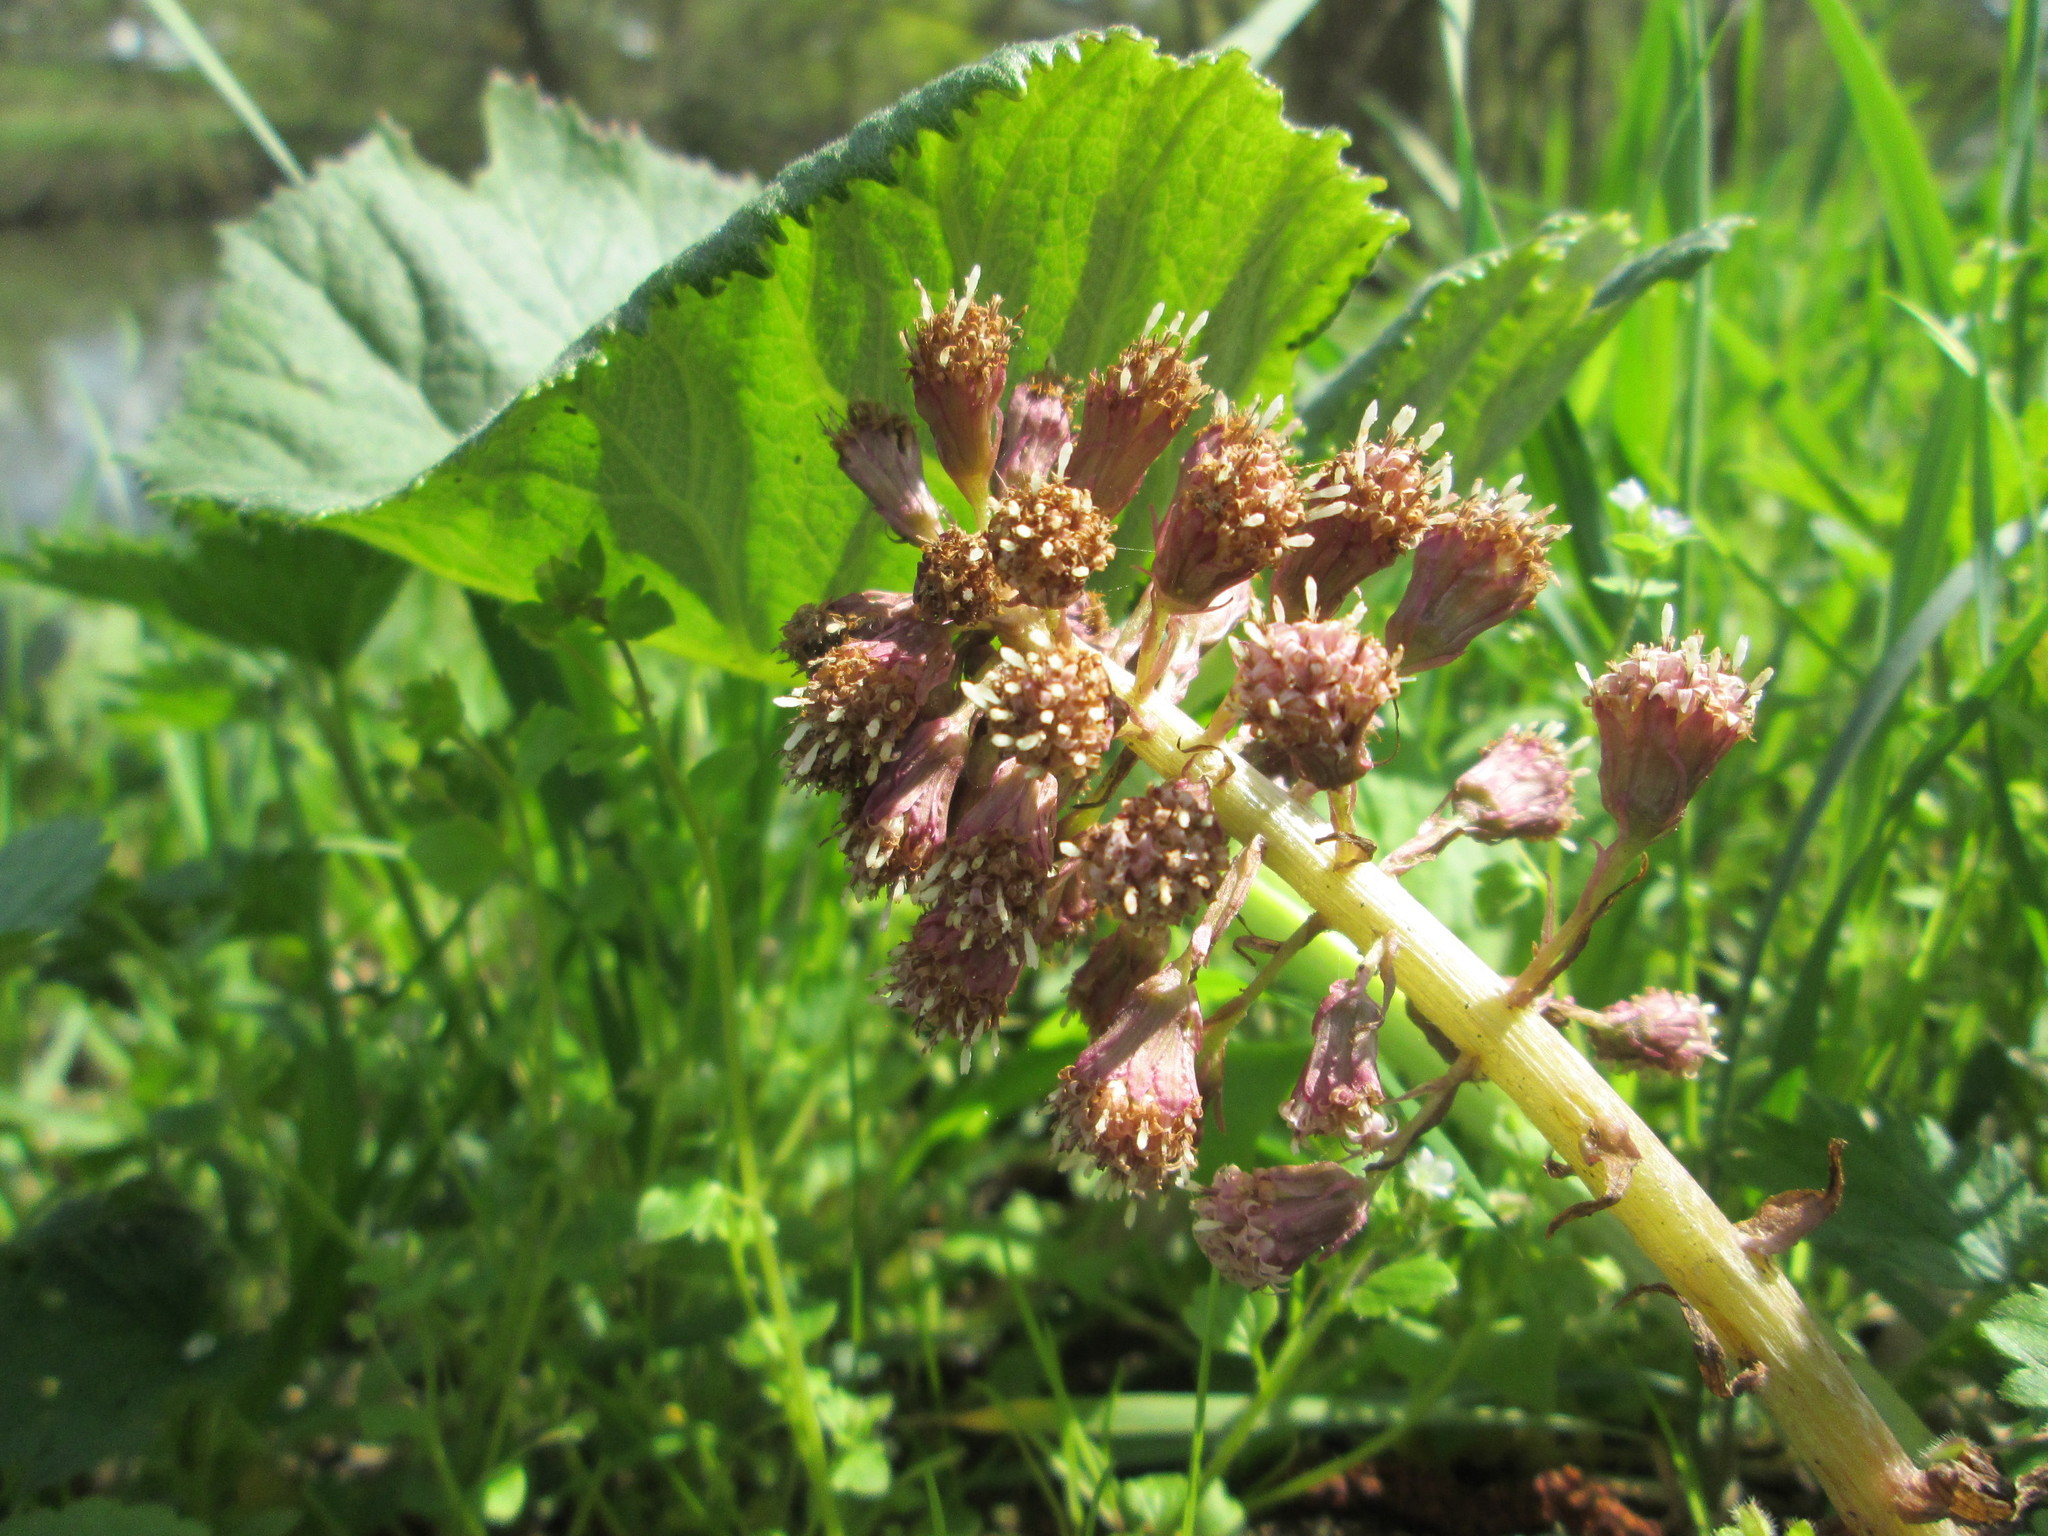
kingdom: Plantae
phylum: Tracheophyta
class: Magnoliopsida
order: Asterales
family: Asteraceae
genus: Petasites
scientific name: Petasites hybridus
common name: Butterbur
